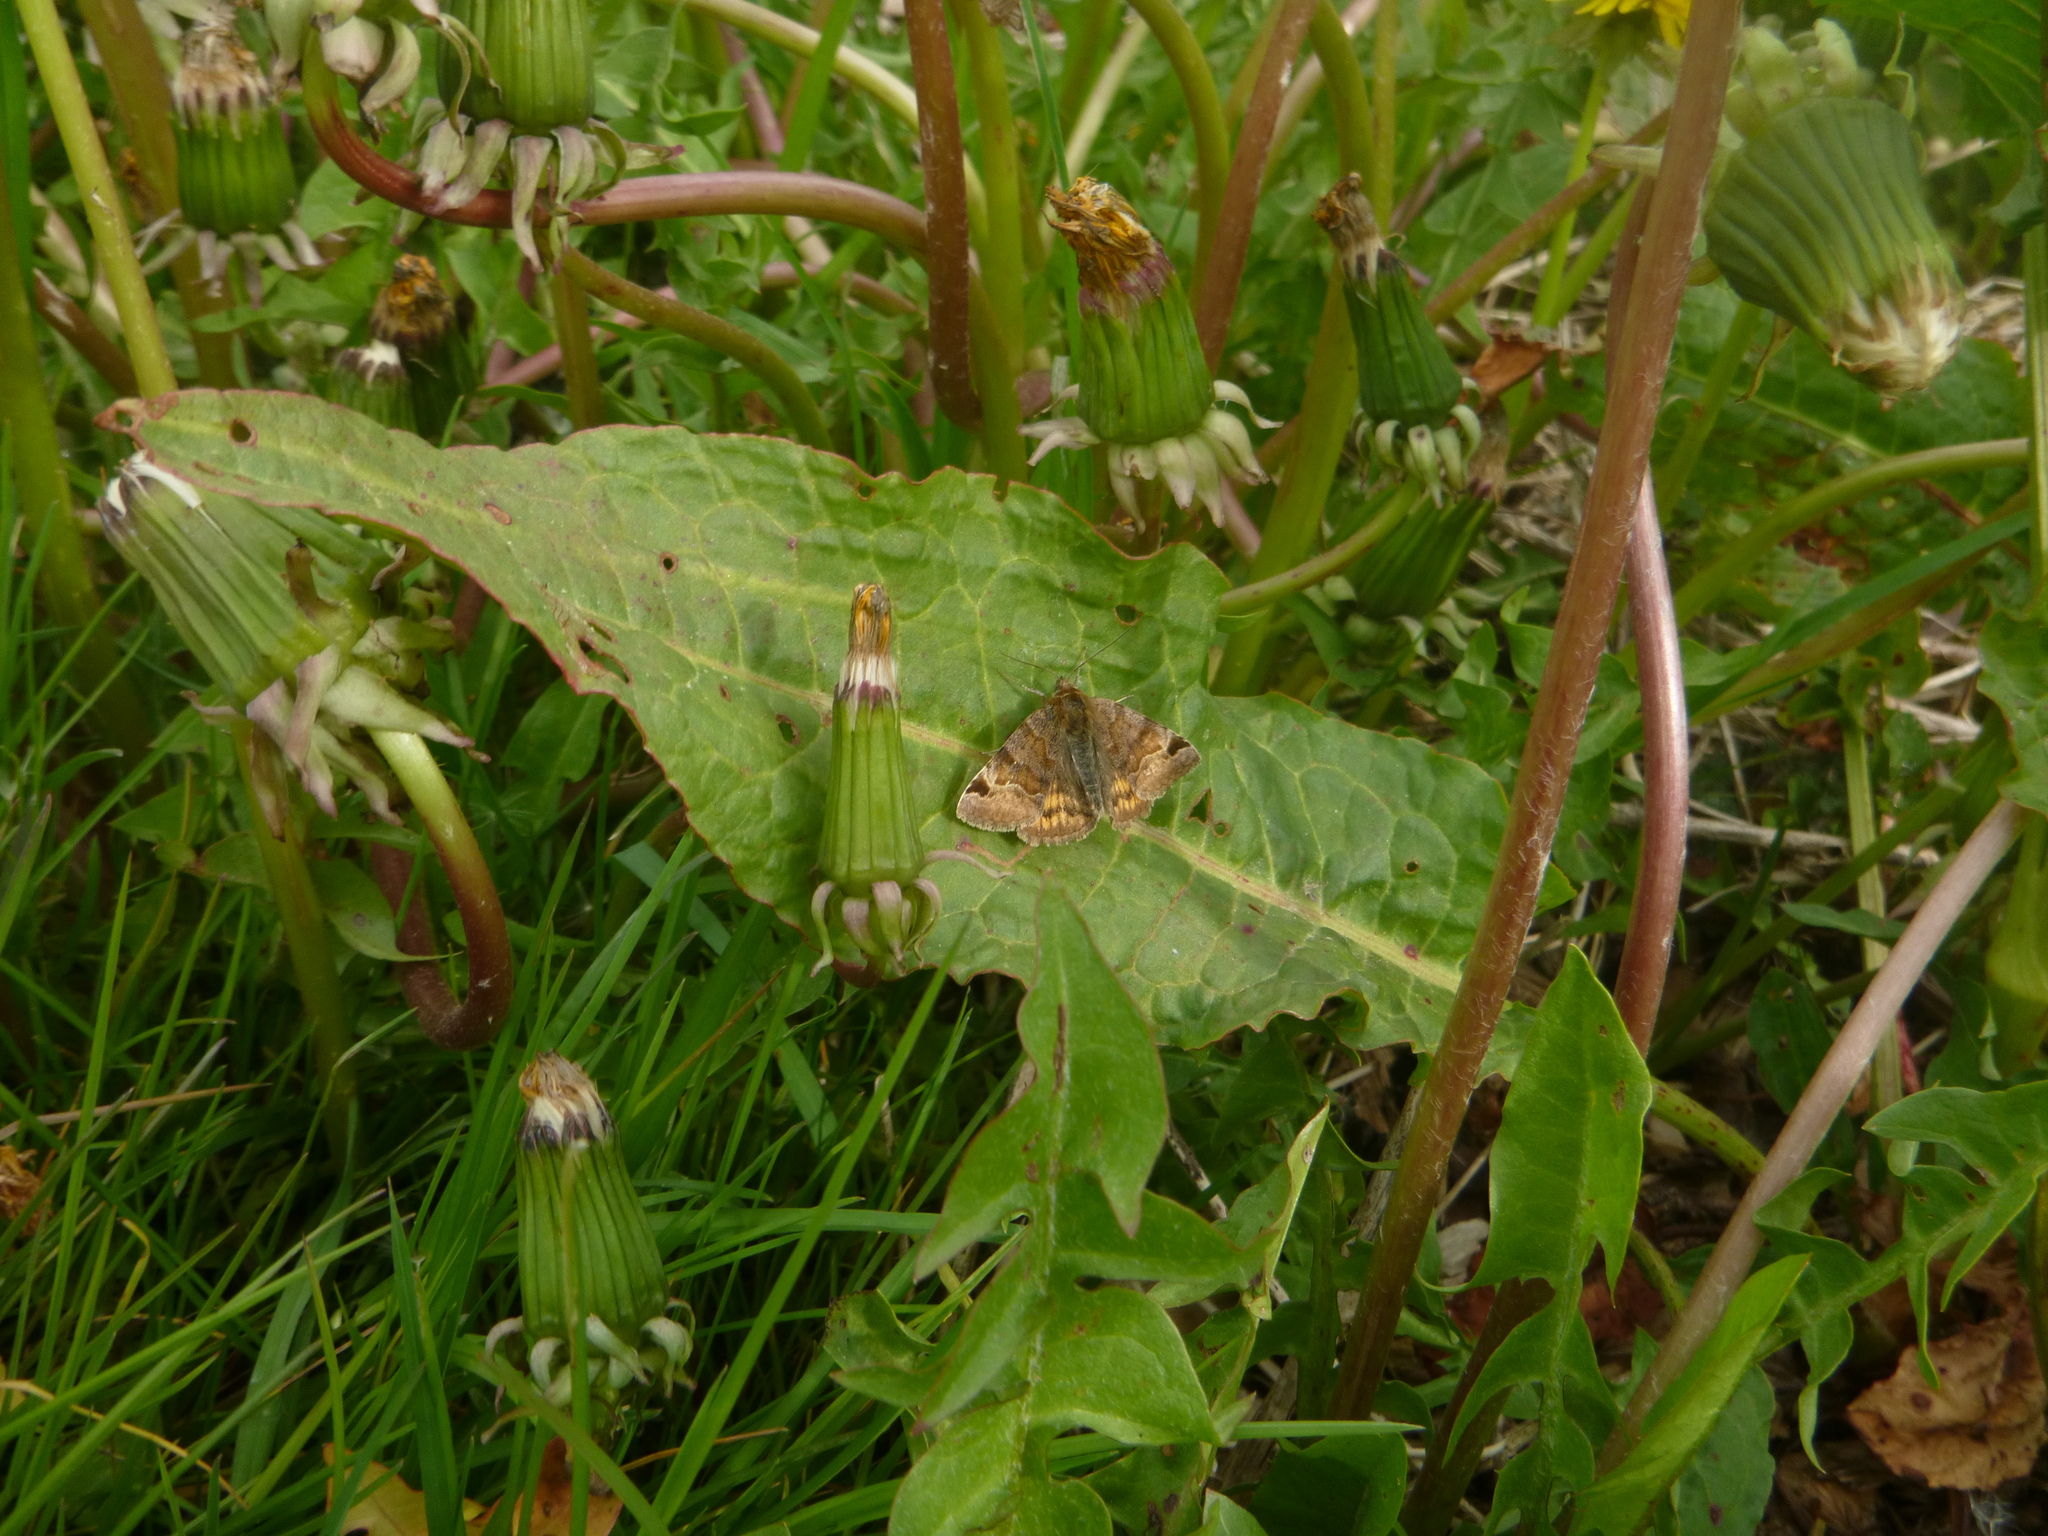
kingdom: Animalia
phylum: Arthropoda
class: Insecta
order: Lepidoptera
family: Erebidae
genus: Euclidia
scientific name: Euclidia glyphica
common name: Burnet companion
